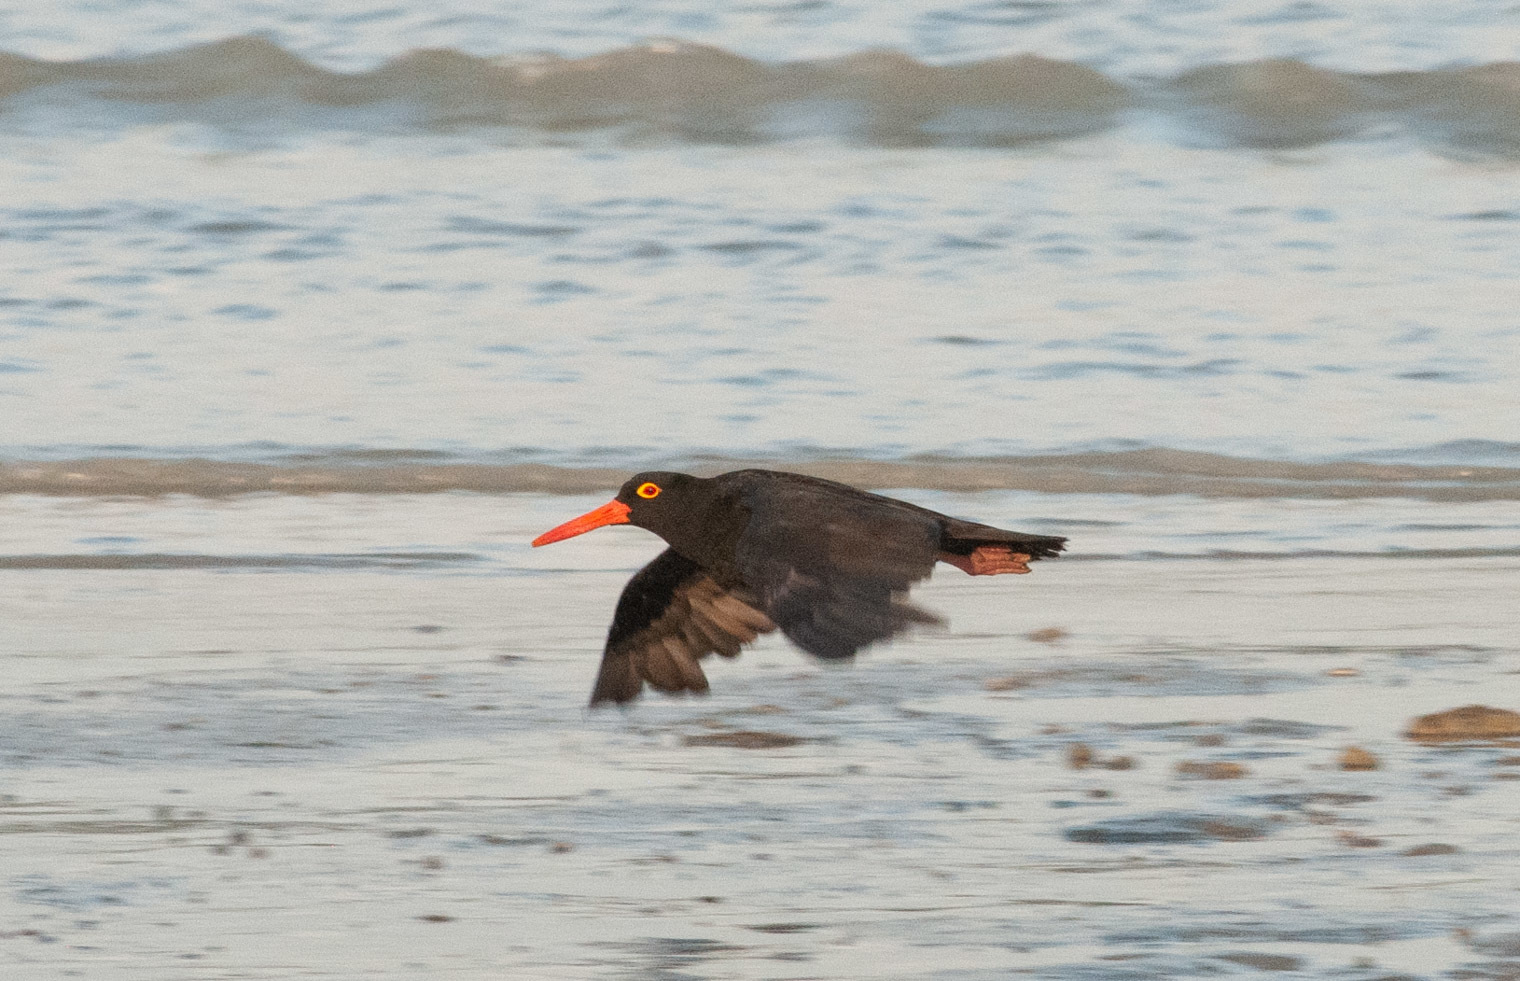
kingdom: Animalia
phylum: Chordata
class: Aves
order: Charadriiformes
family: Haematopodidae
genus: Haematopus
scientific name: Haematopus fuliginosus
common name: Sooty oystercatcher
